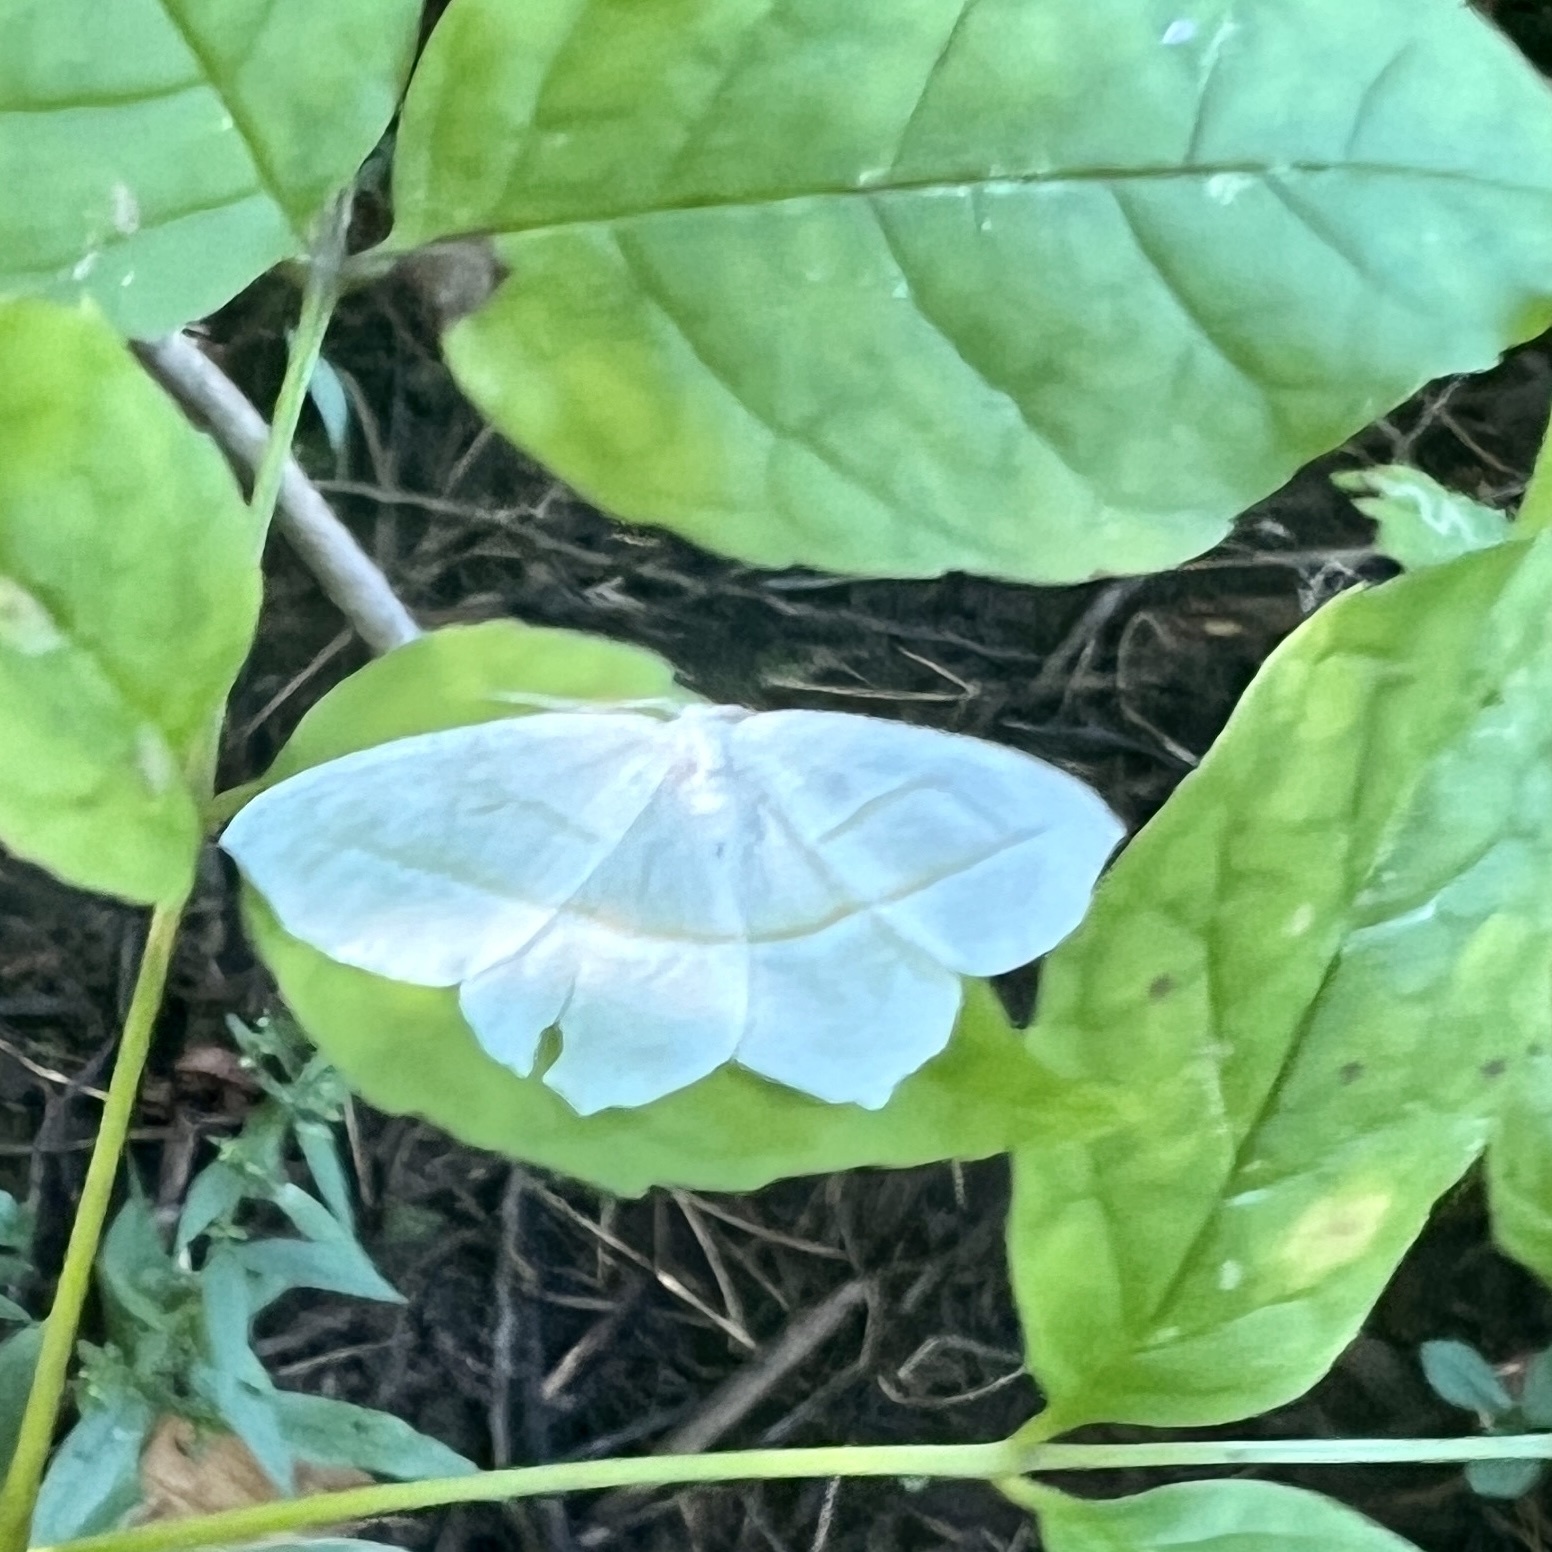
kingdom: Animalia
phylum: Arthropoda
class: Insecta
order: Lepidoptera
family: Geometridae
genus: Campaea
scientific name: Campaea perlata
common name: Fringed looper
